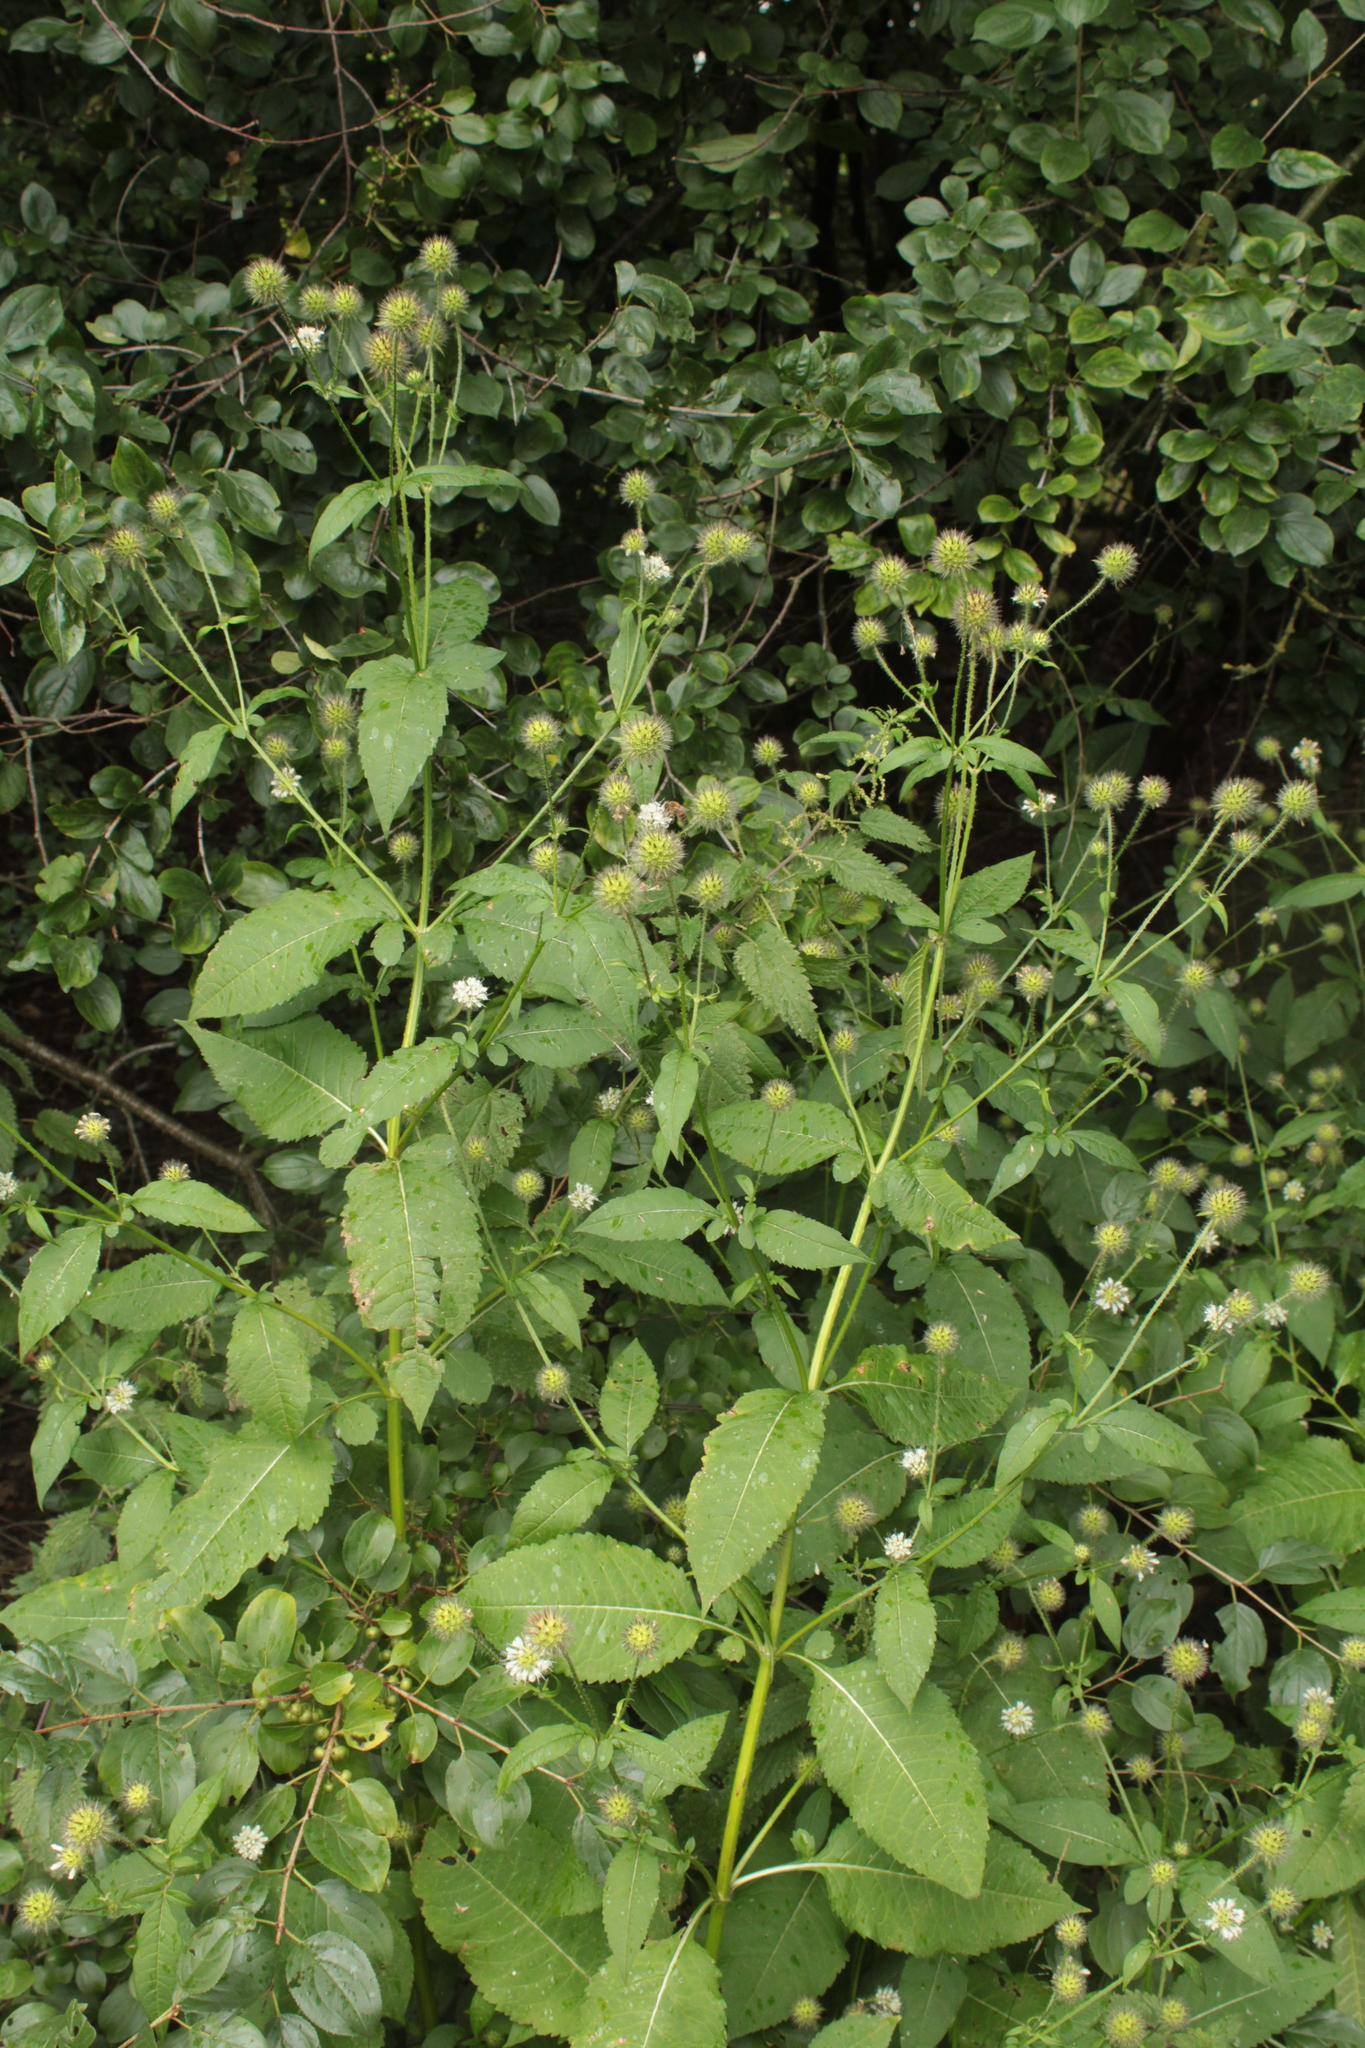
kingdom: Plantae
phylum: Tracheophyta
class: Magnoliopsida
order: Dipsacales
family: Caprifoliaceae
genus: Dipsacus
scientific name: Dipsacus pilosus
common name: Small teasel
